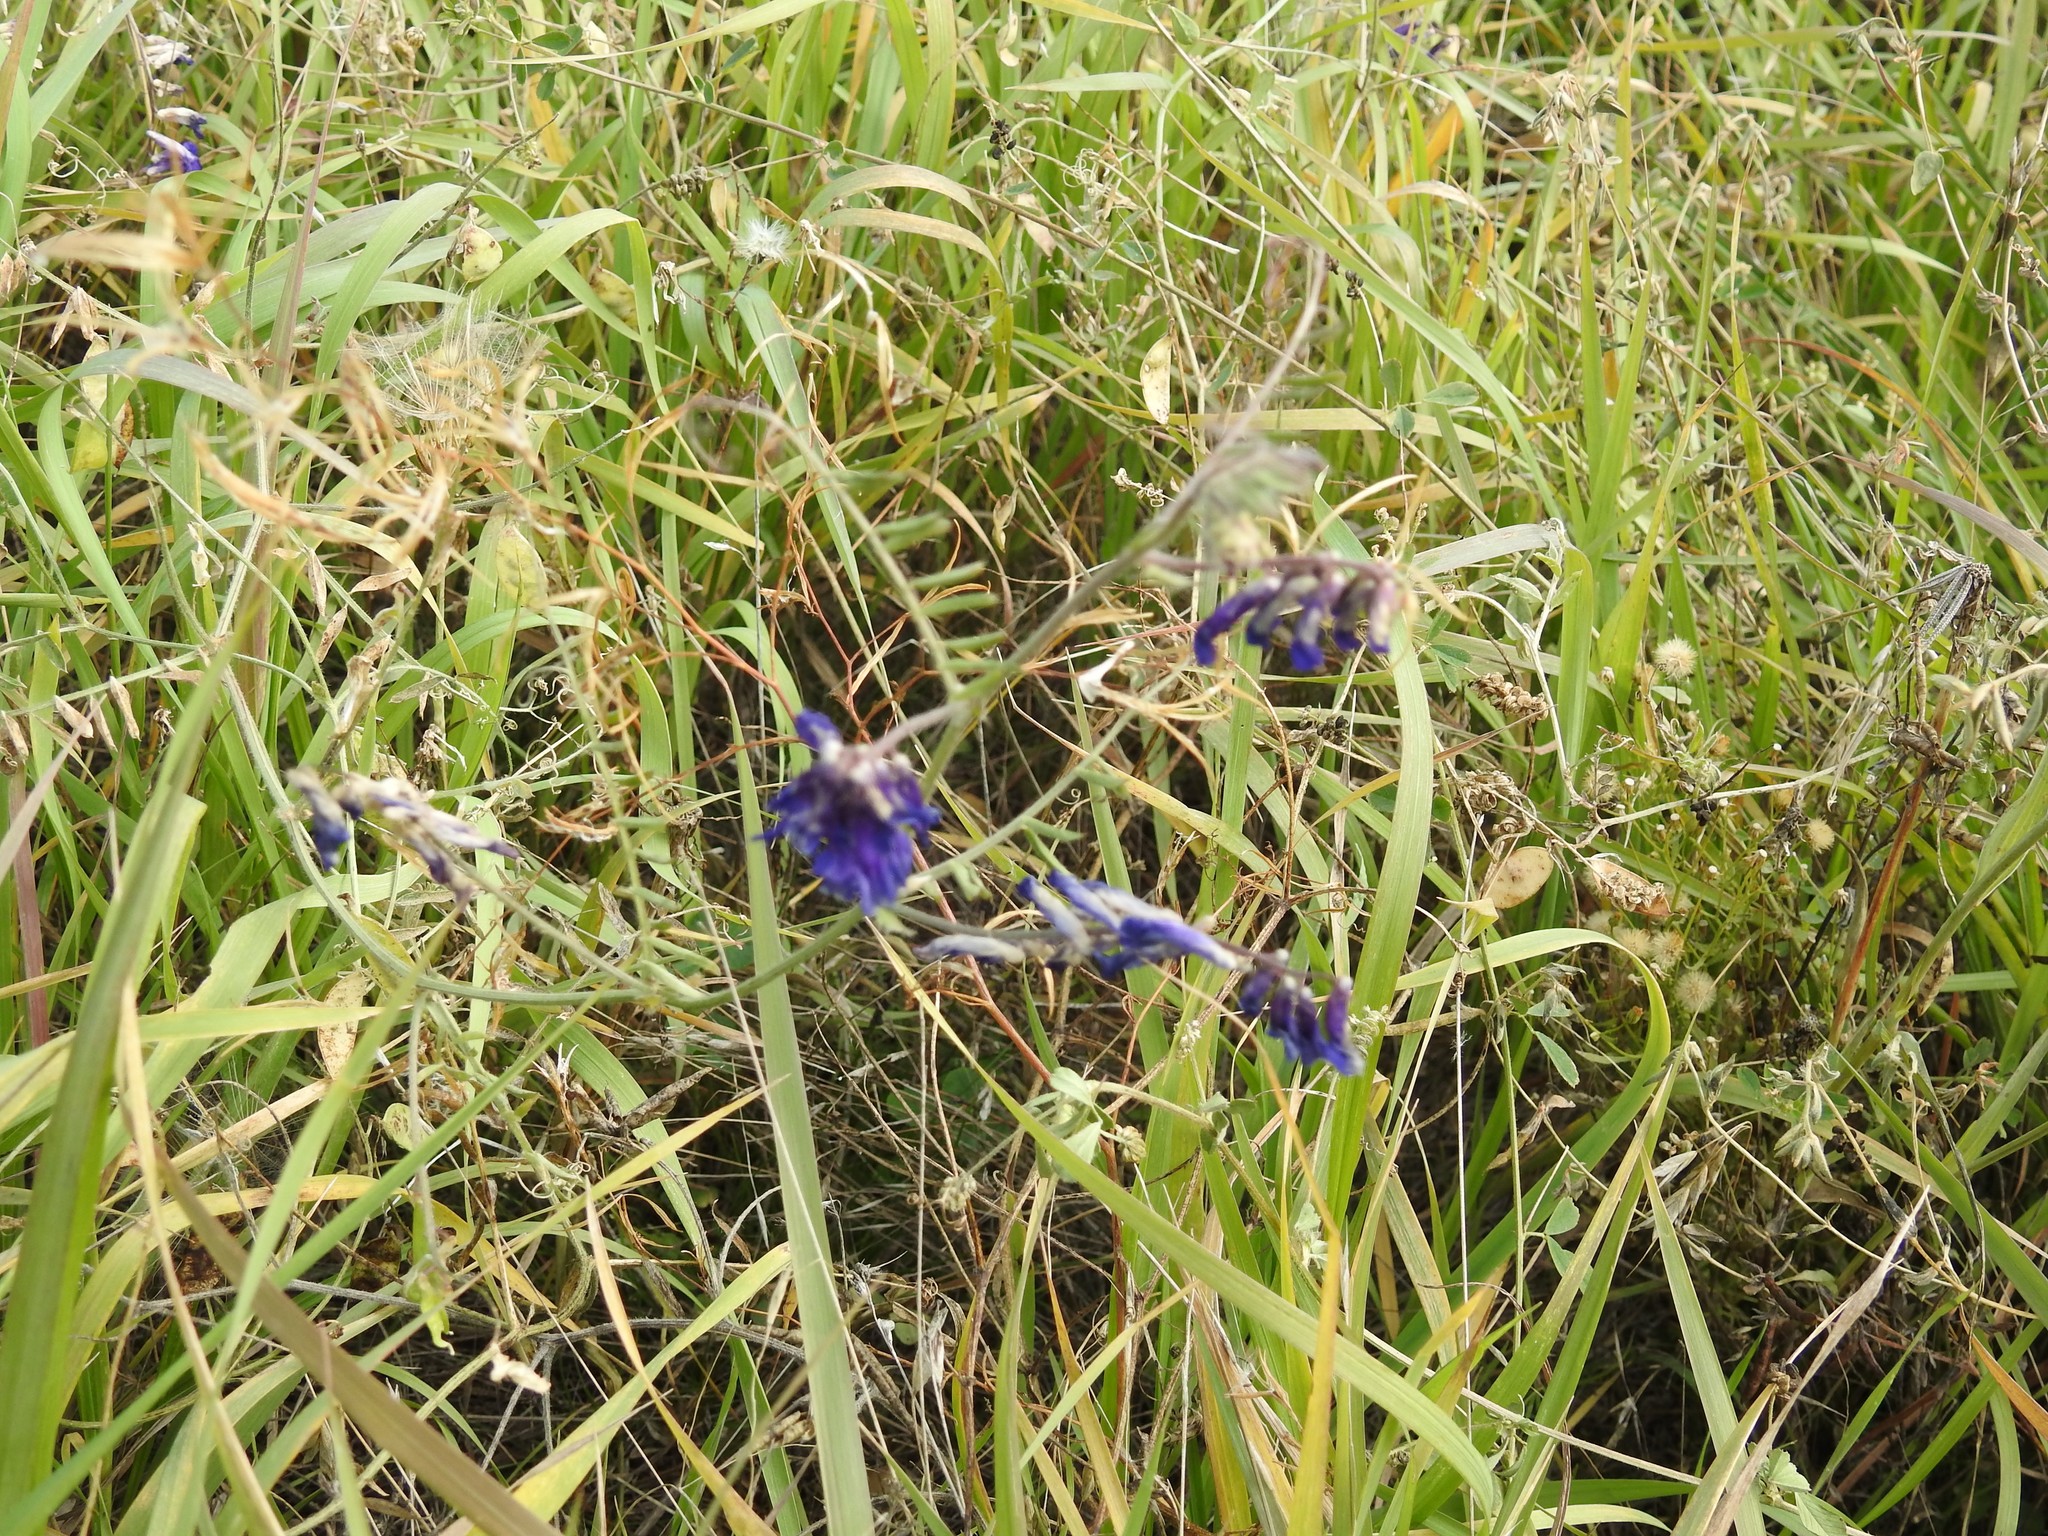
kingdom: Plantae
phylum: Tracheophyta
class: Magnoliopsida
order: Fabales
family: Fabaceae
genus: Vicia
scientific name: Vicia villosa
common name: Fodder vetch
